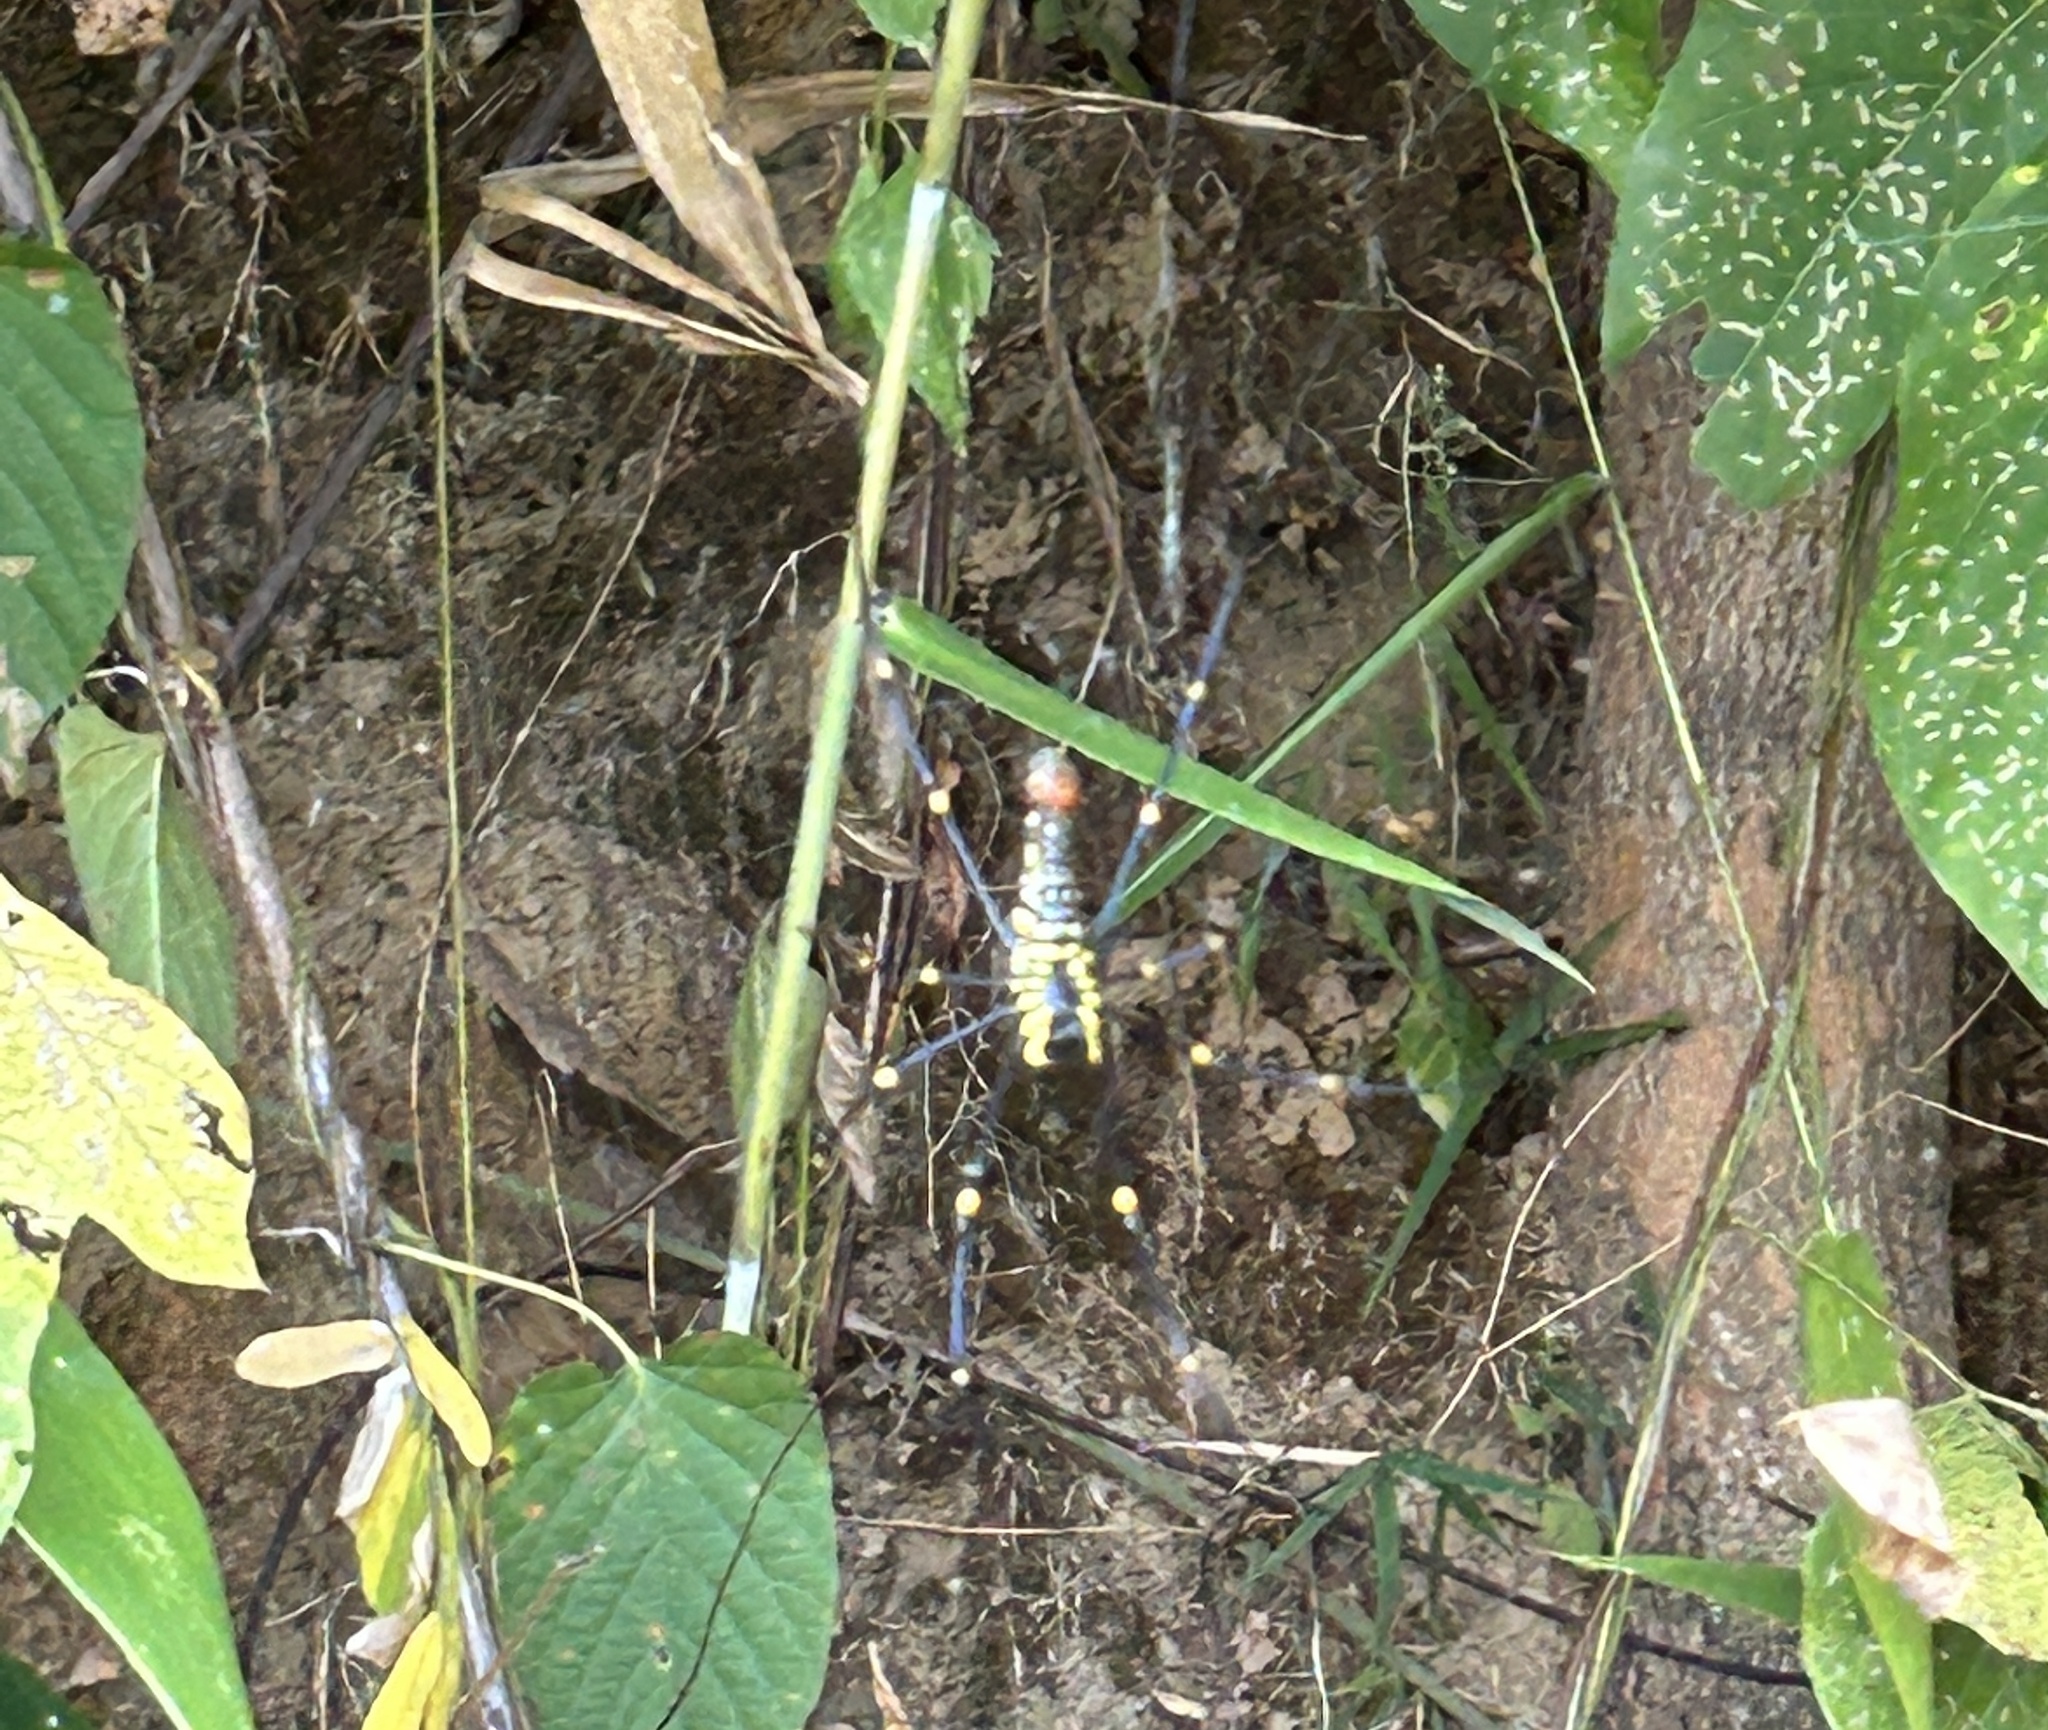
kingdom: Animalia
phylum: Arthropoda
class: Arachnida
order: Araneae
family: Araneidae
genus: Nephila
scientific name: Nephila pilipes
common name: Giant golden orb weaver
